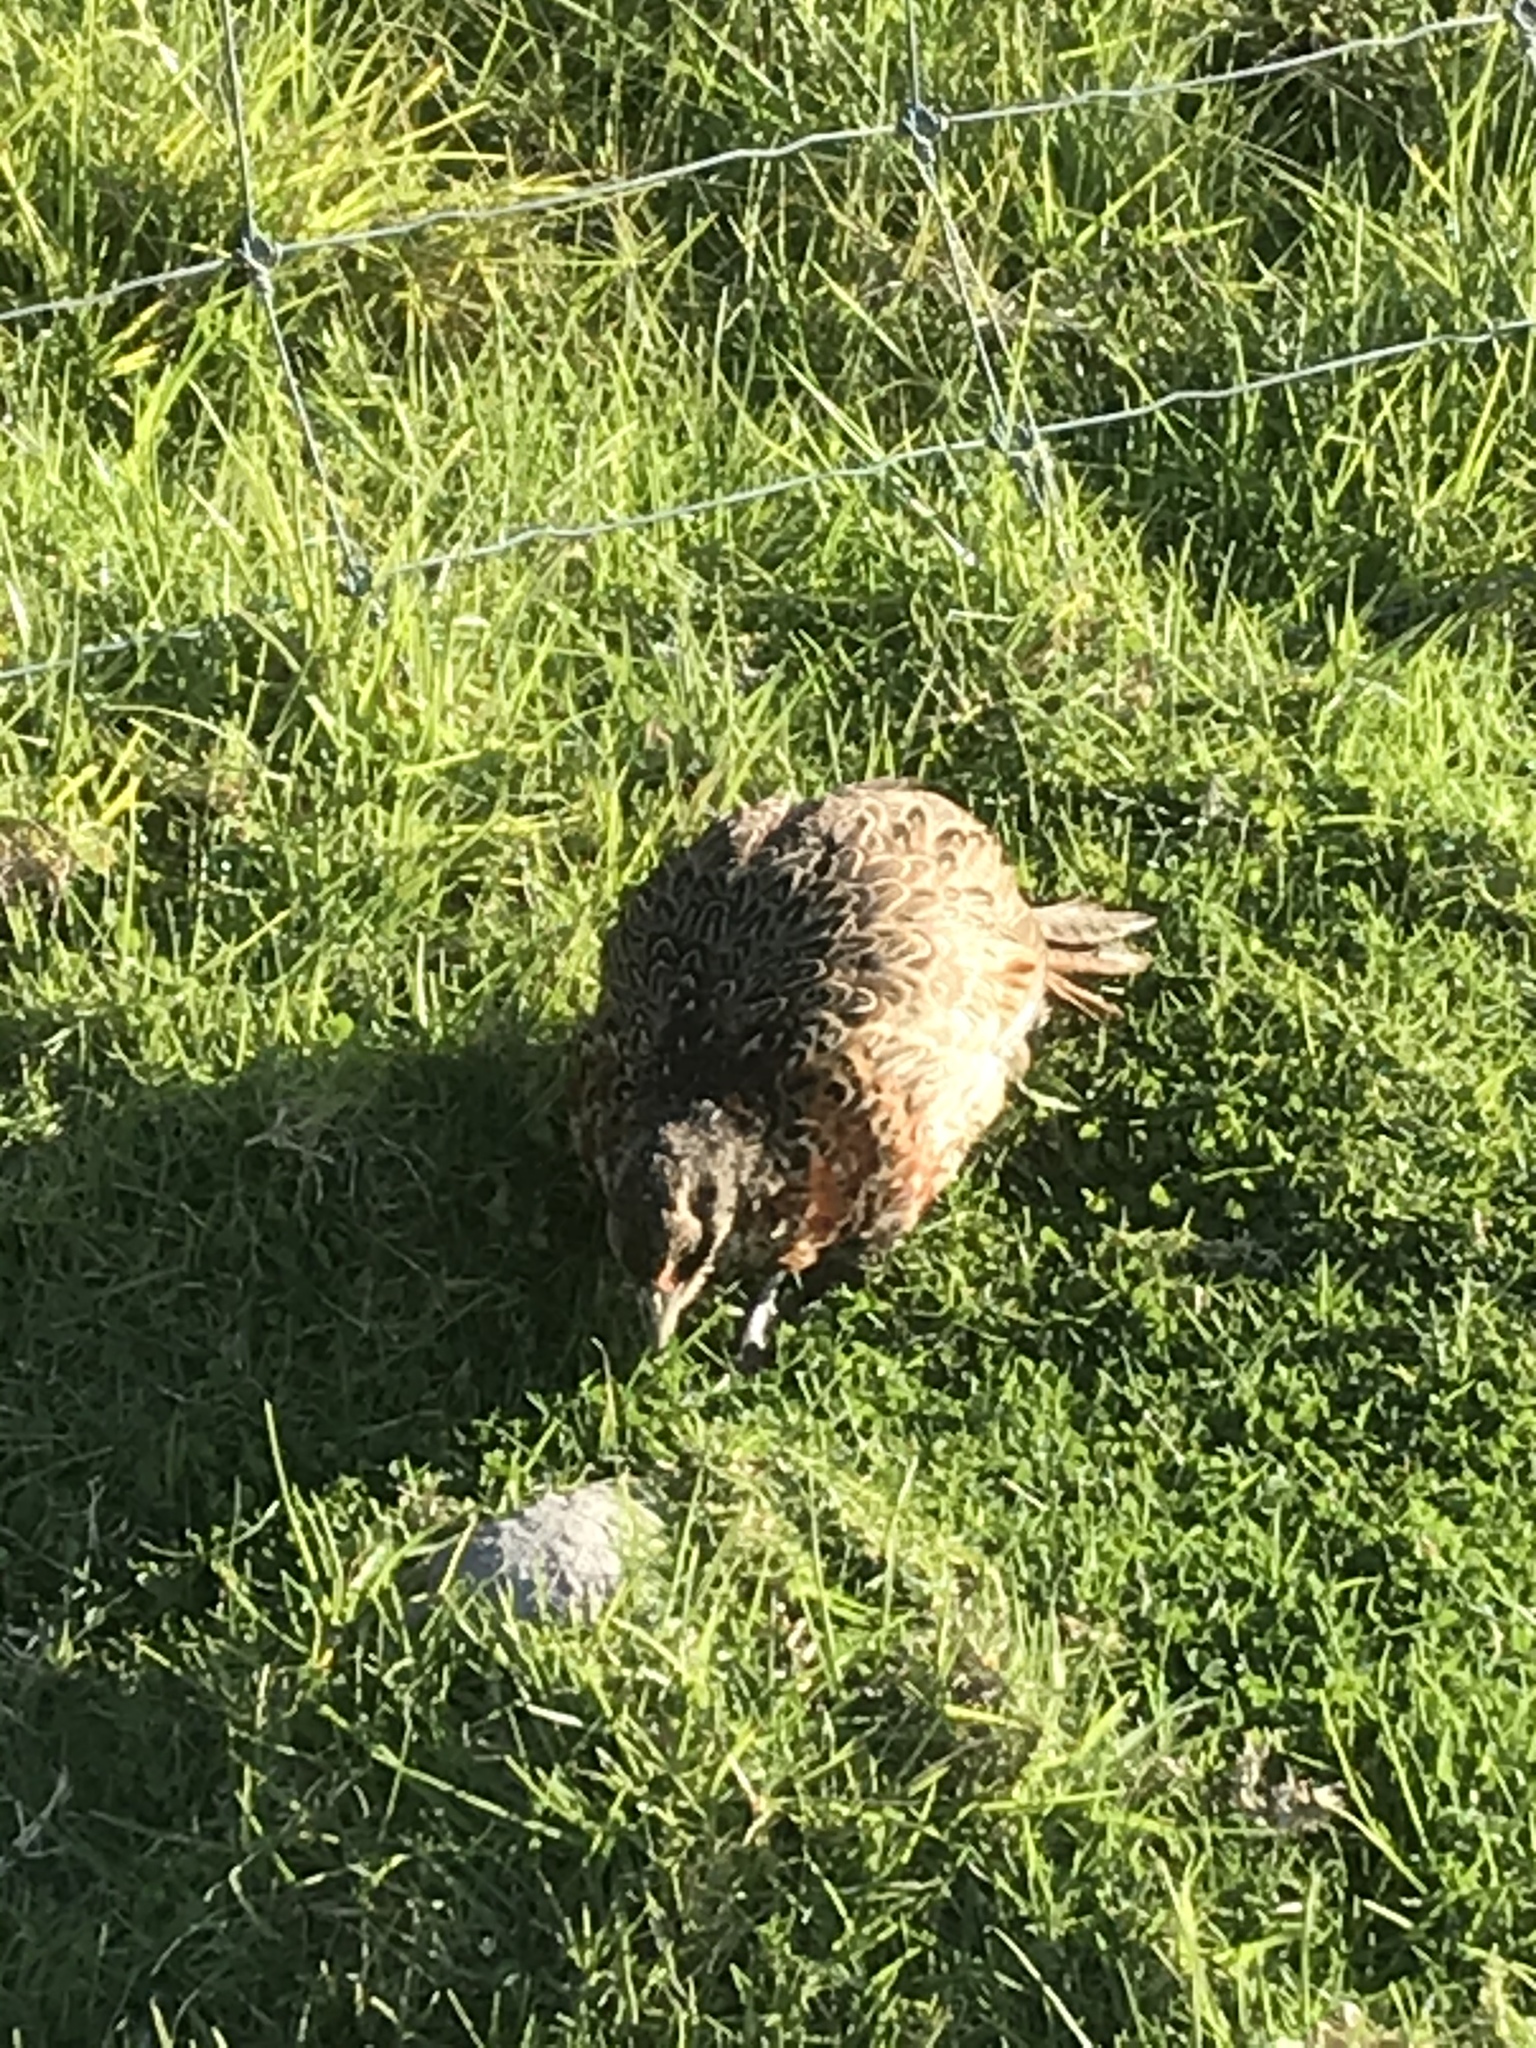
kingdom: Animalia
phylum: Chordata
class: Aves
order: Galliformes
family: Phasianidae
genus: Phasianus
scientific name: Phasianus colchicus
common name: Common pheasant
